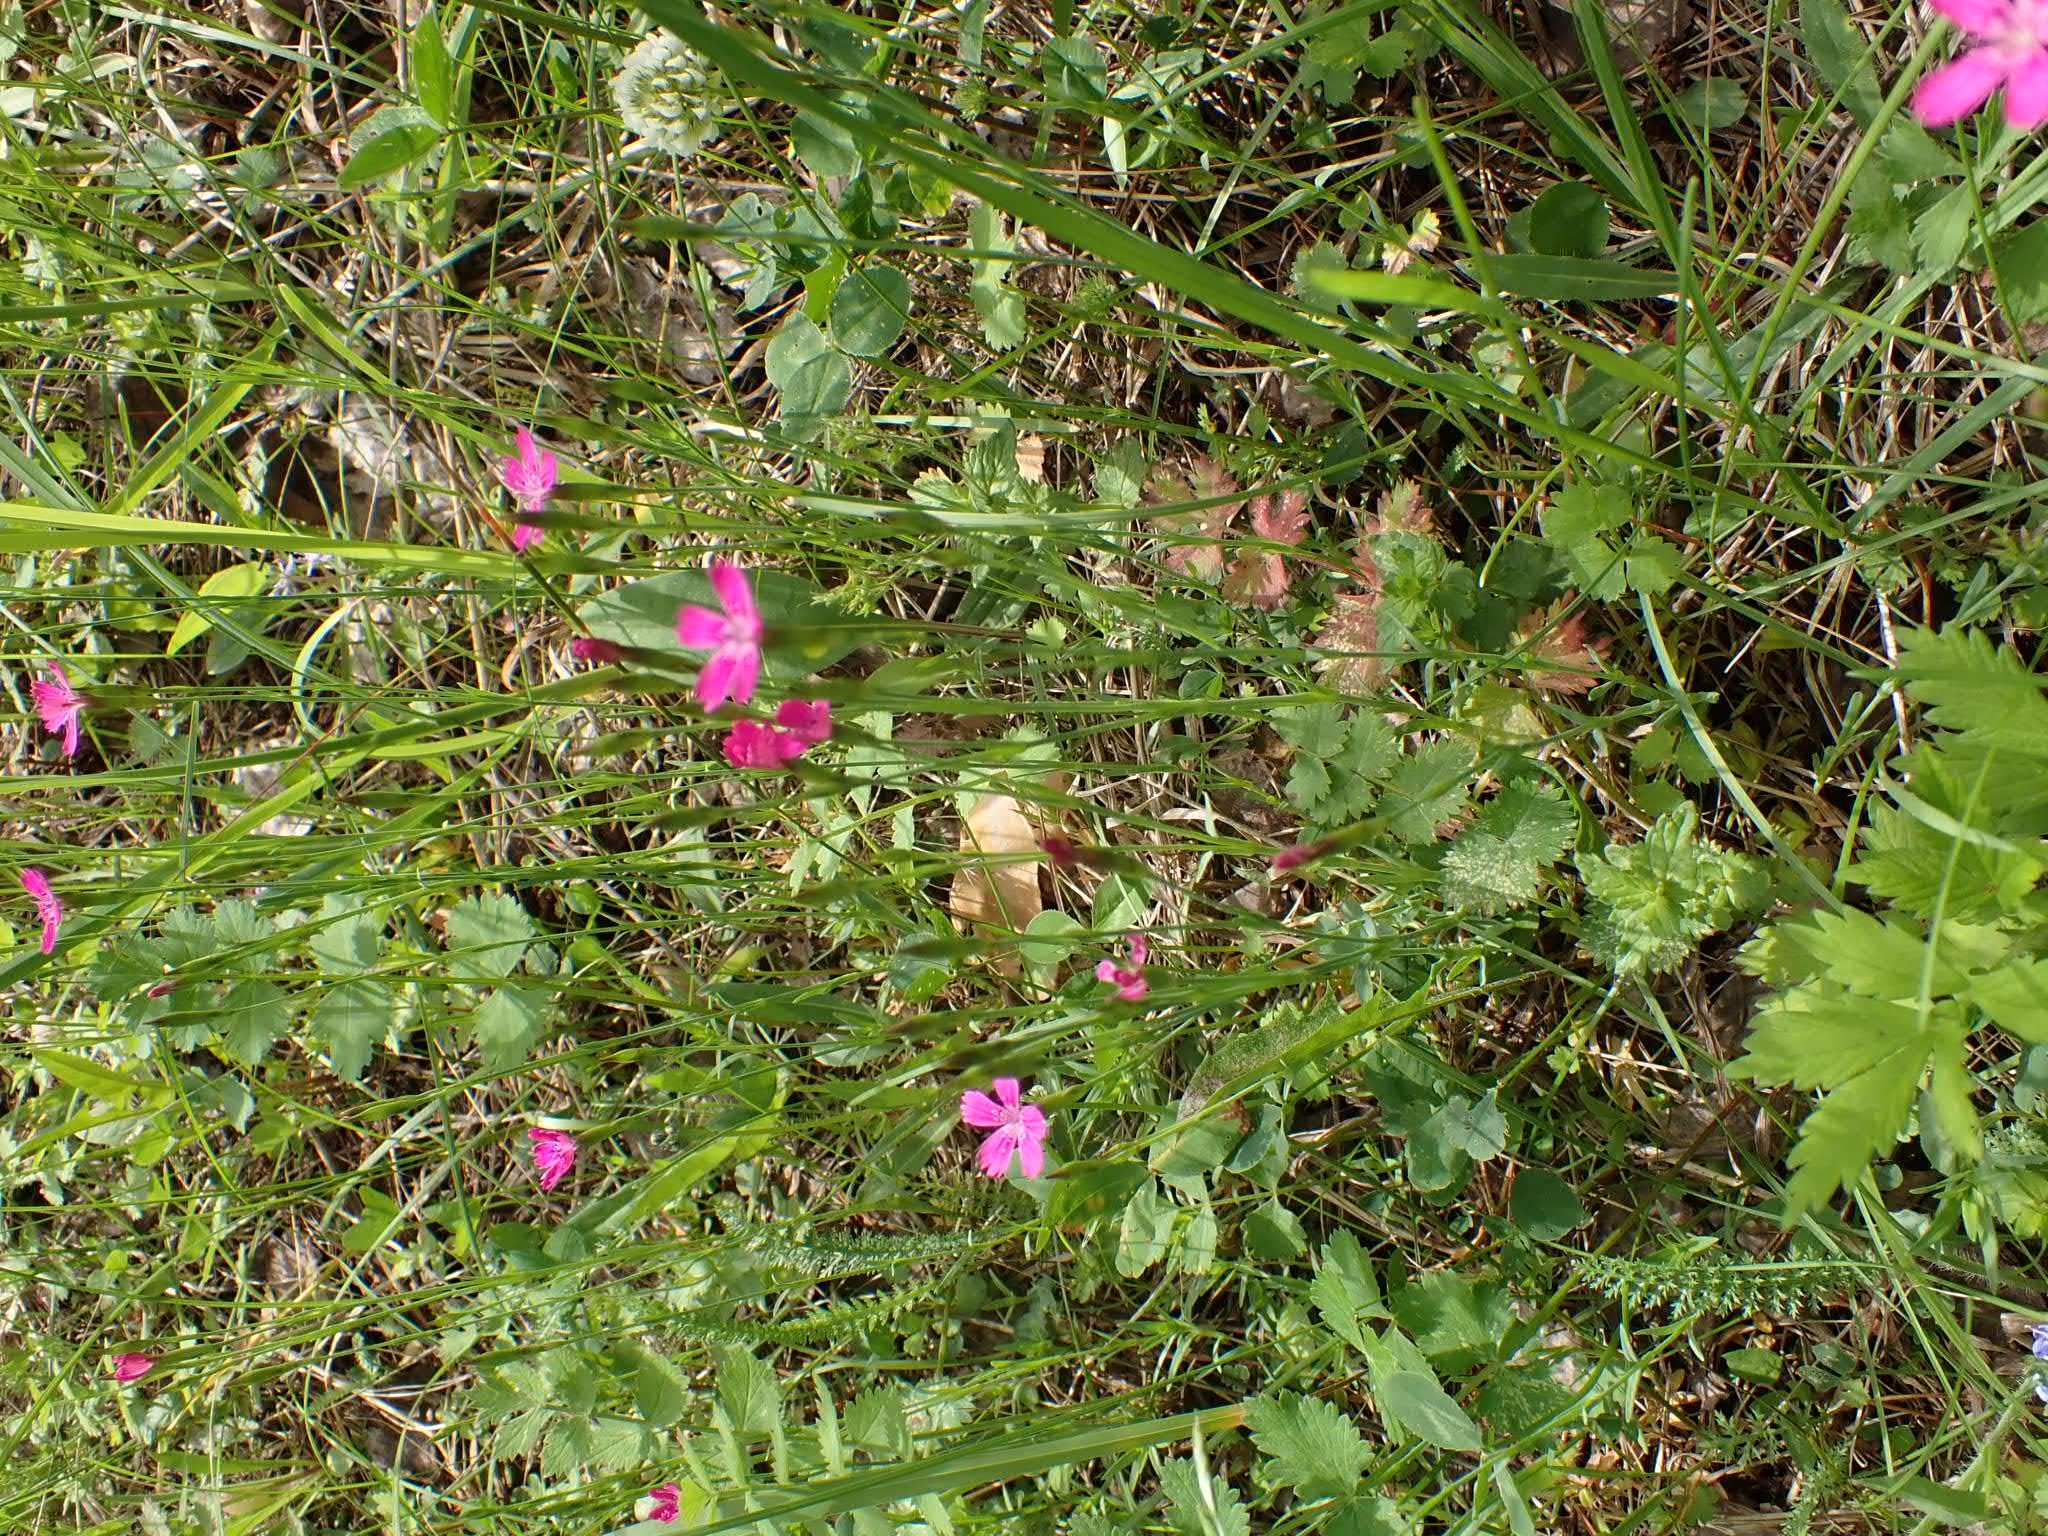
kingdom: Plantae
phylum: Tracheophyta
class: Magnoliopsida
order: Caryophyllales
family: Caryophyllaceae
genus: Dianthus
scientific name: Dianthus deltoides
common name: Maiden pink
